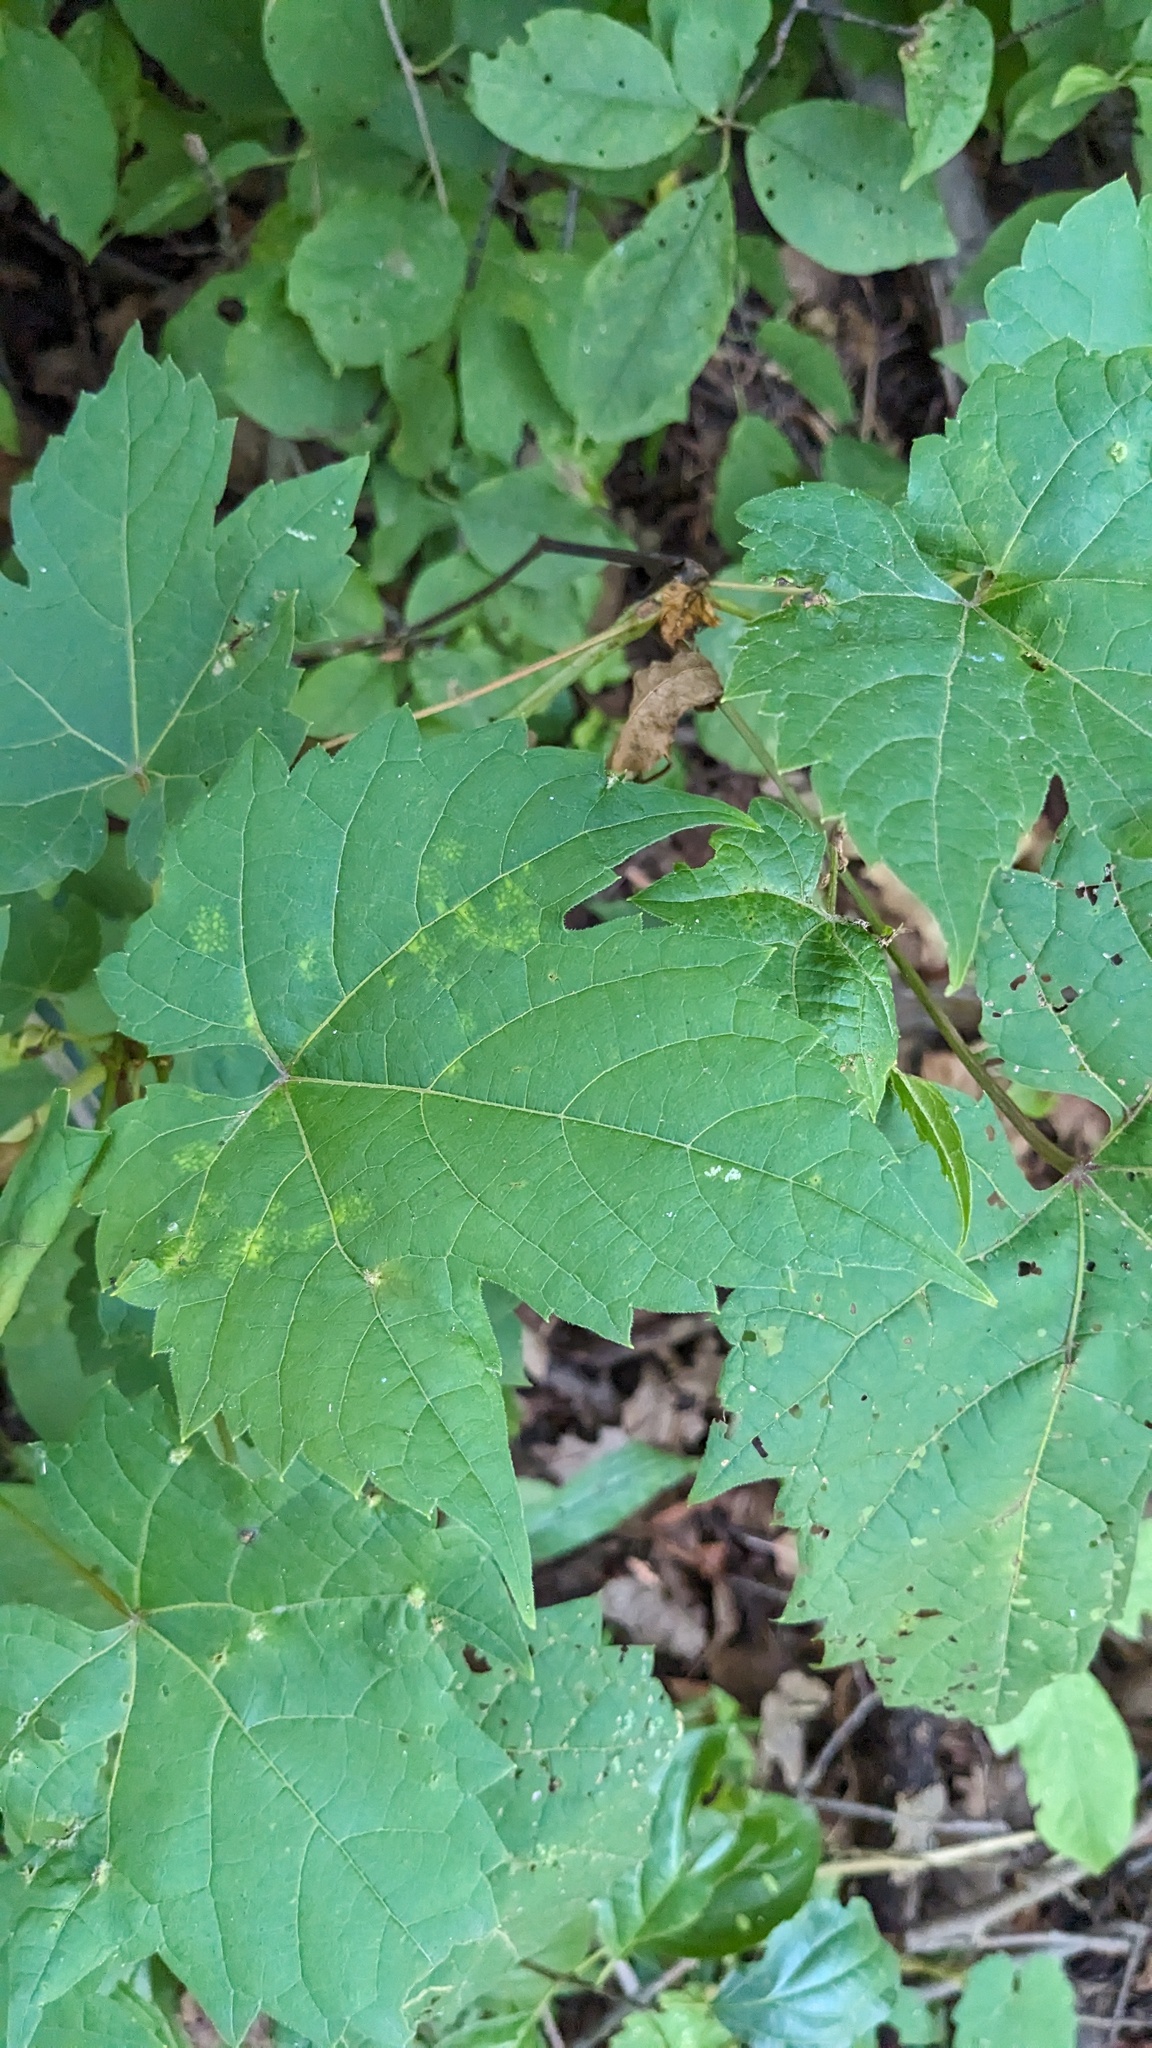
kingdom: Plantae
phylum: Tracheophyta
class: Magnoliopsida
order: Vitales
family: Vitaceae
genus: Vitis
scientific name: Vitis riparia
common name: Frost grape
